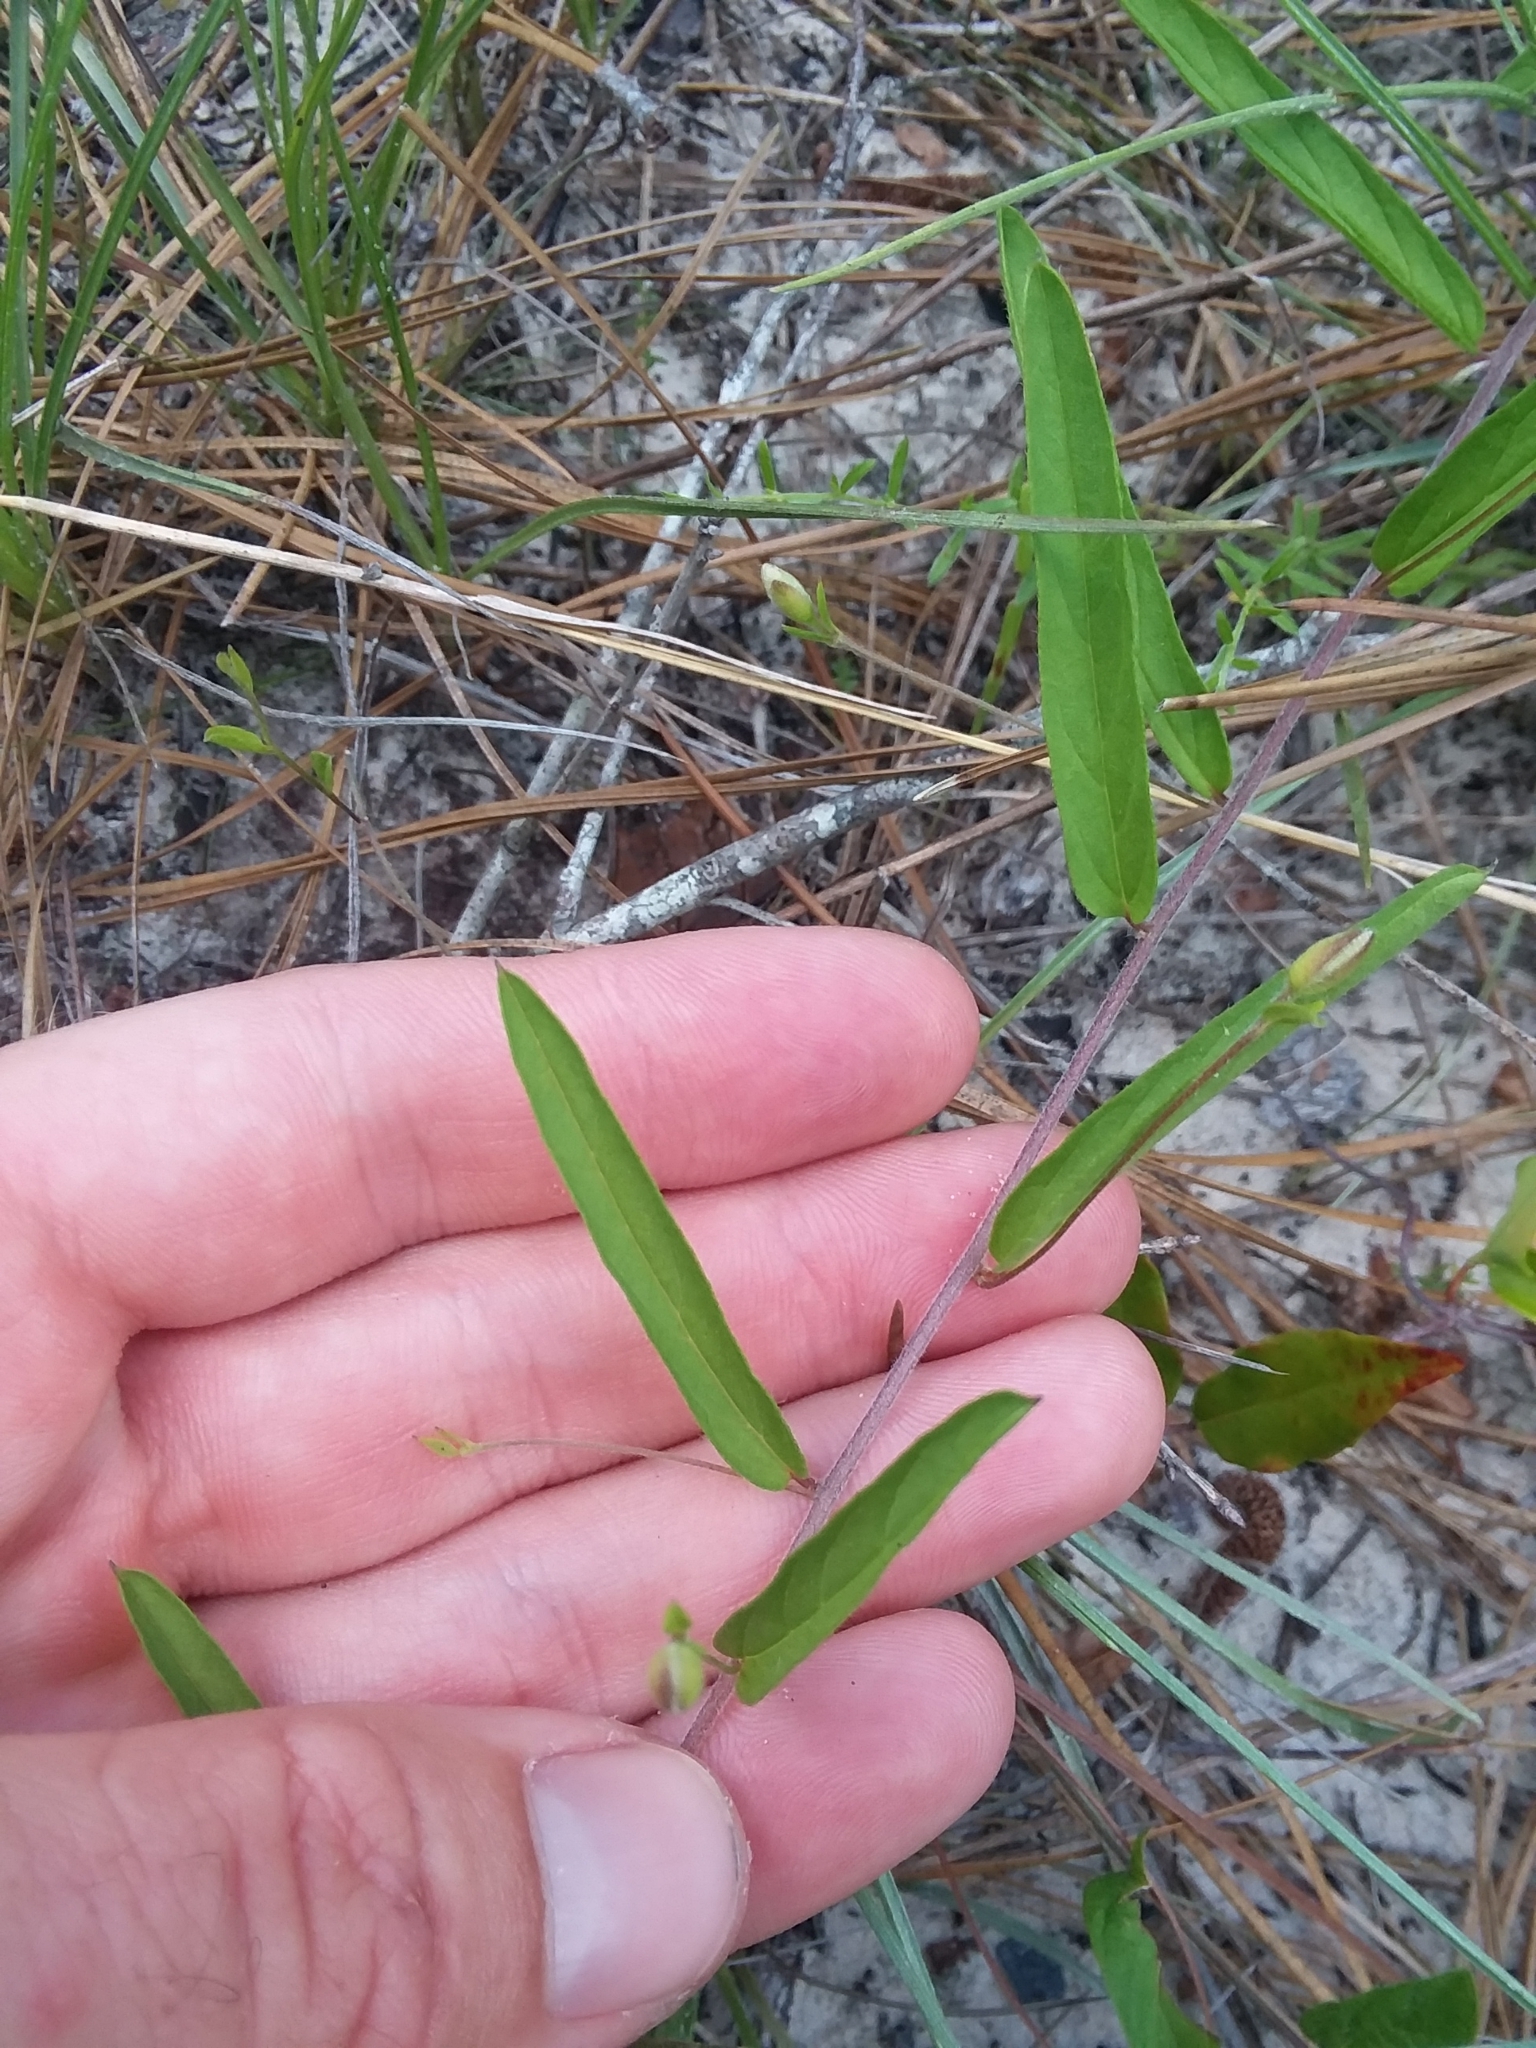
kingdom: Plantae
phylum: Tracheophyta
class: Magnoliopsida
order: Solanales
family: Convolvulaceae
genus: Stylisma
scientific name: Stylisma patens
